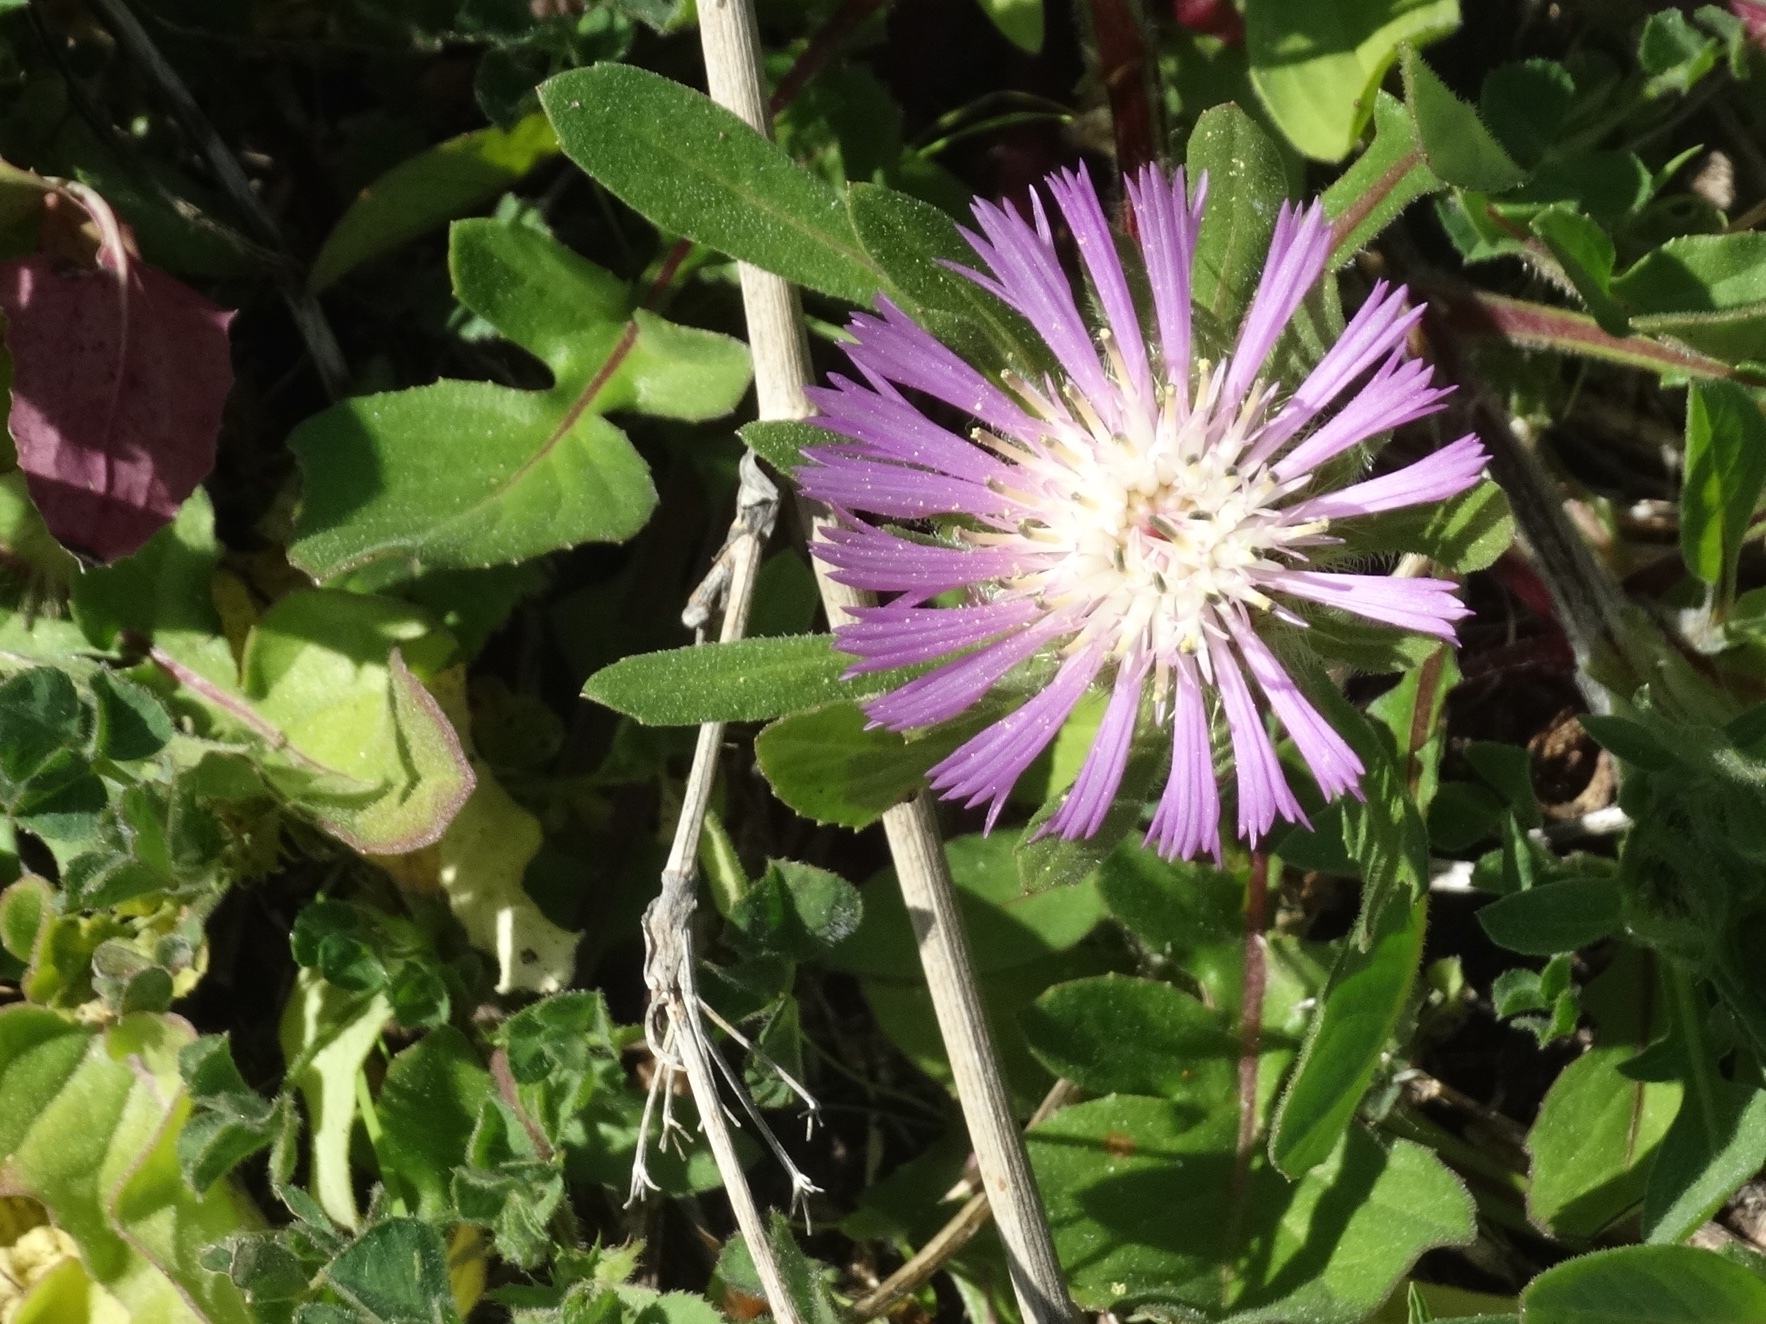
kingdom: Plantae
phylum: Tracheophyta
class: Magnoliopsida
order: Asterales
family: Asteraceae
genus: Centaurea
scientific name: Centaurea pullata
